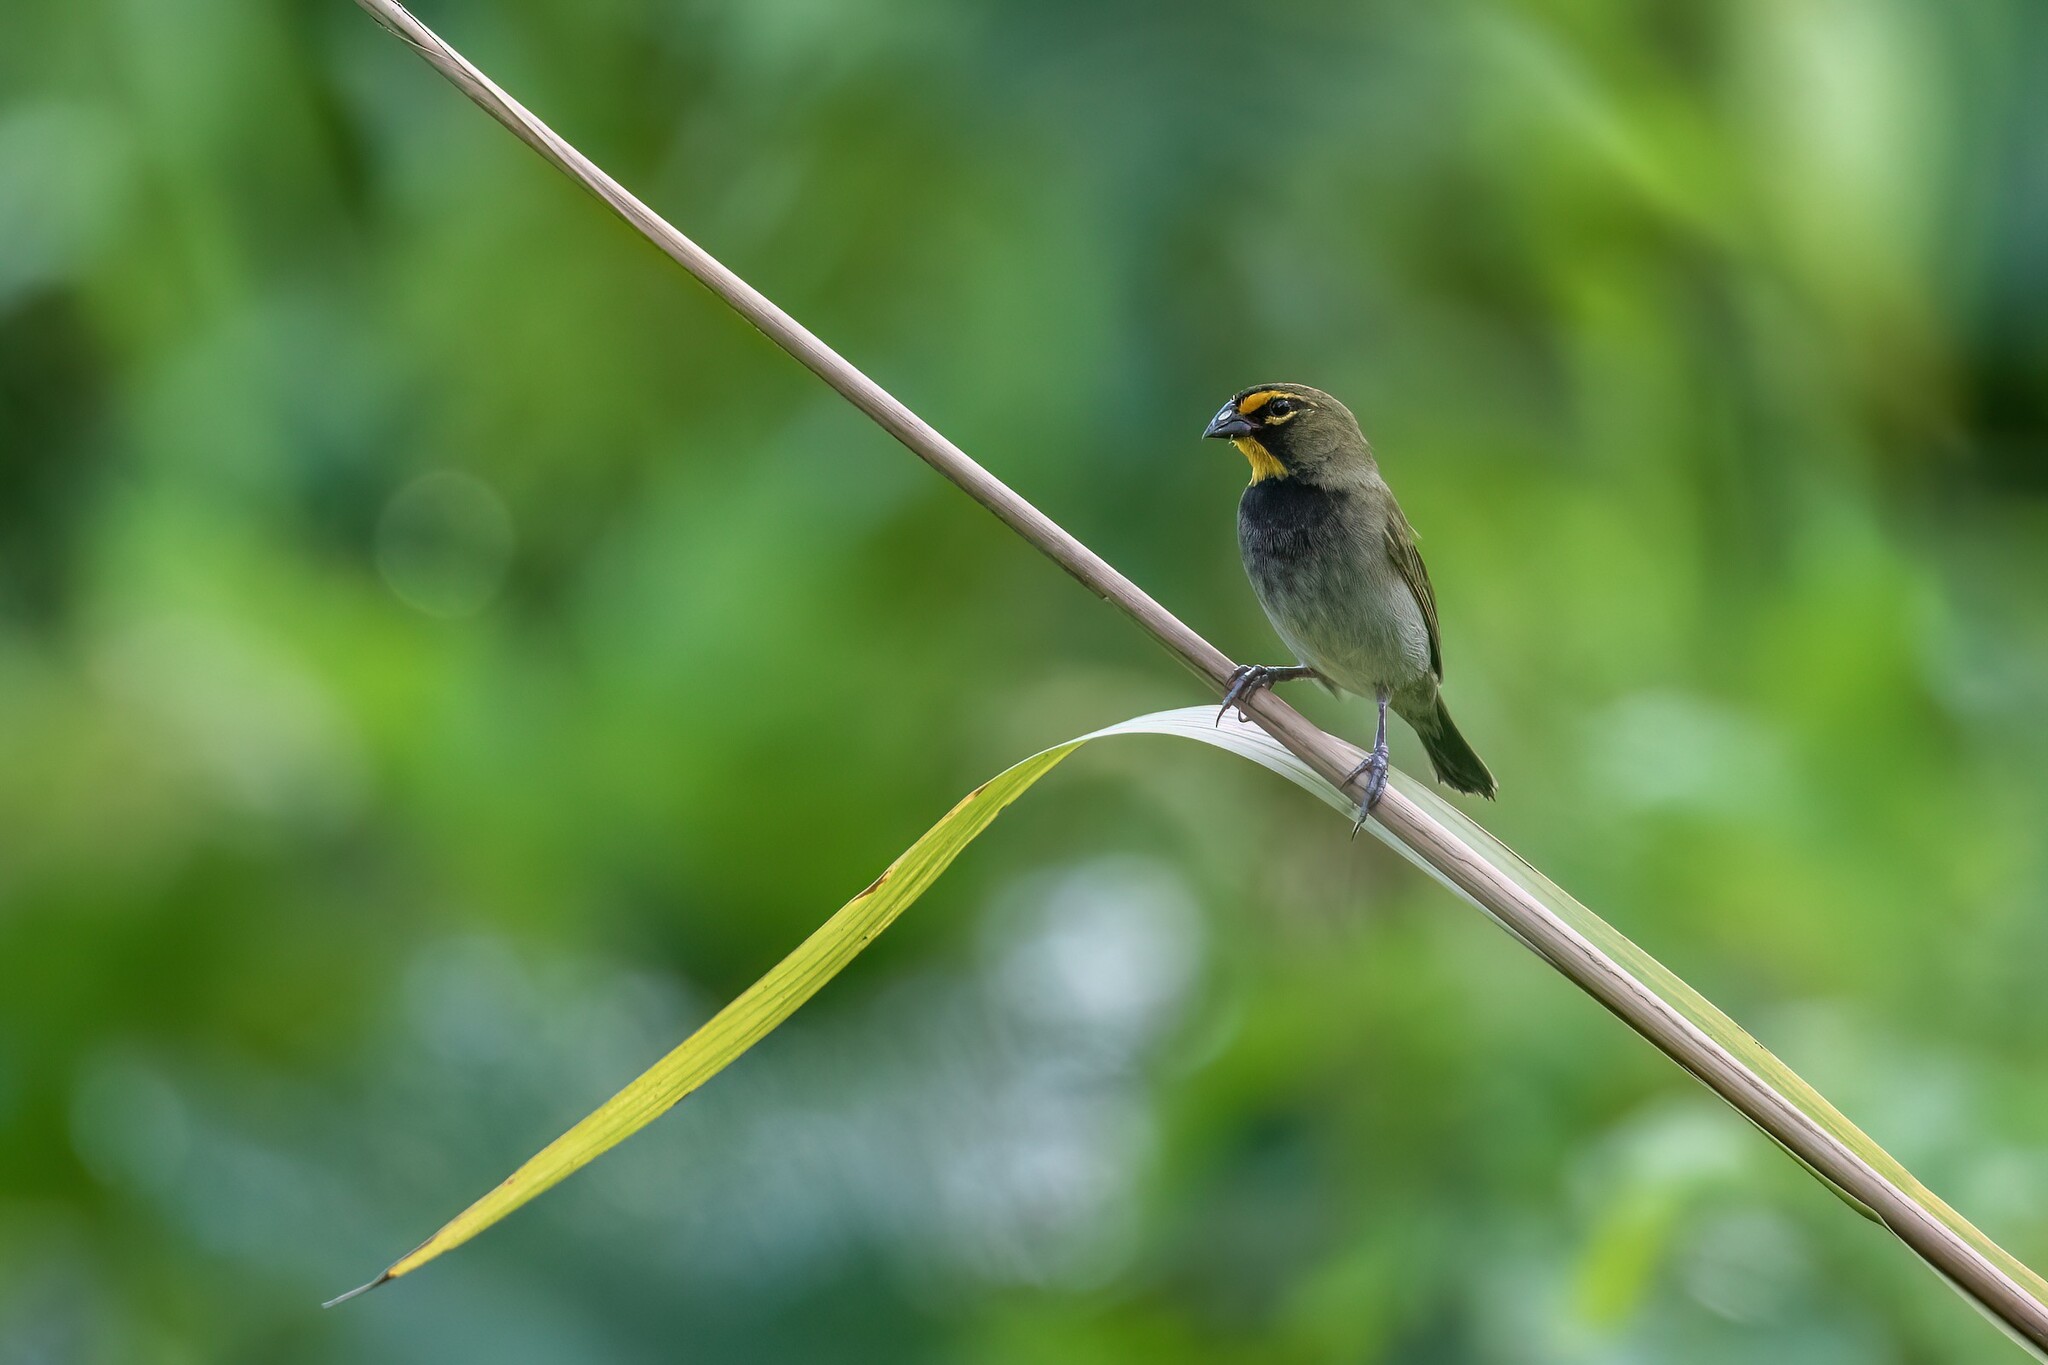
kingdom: Animalia
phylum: Chordata
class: Aves
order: Passeriformes
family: Thraupidae
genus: Tiaris
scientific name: Tiaris olivaceus
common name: Yellow-faced grassquit
